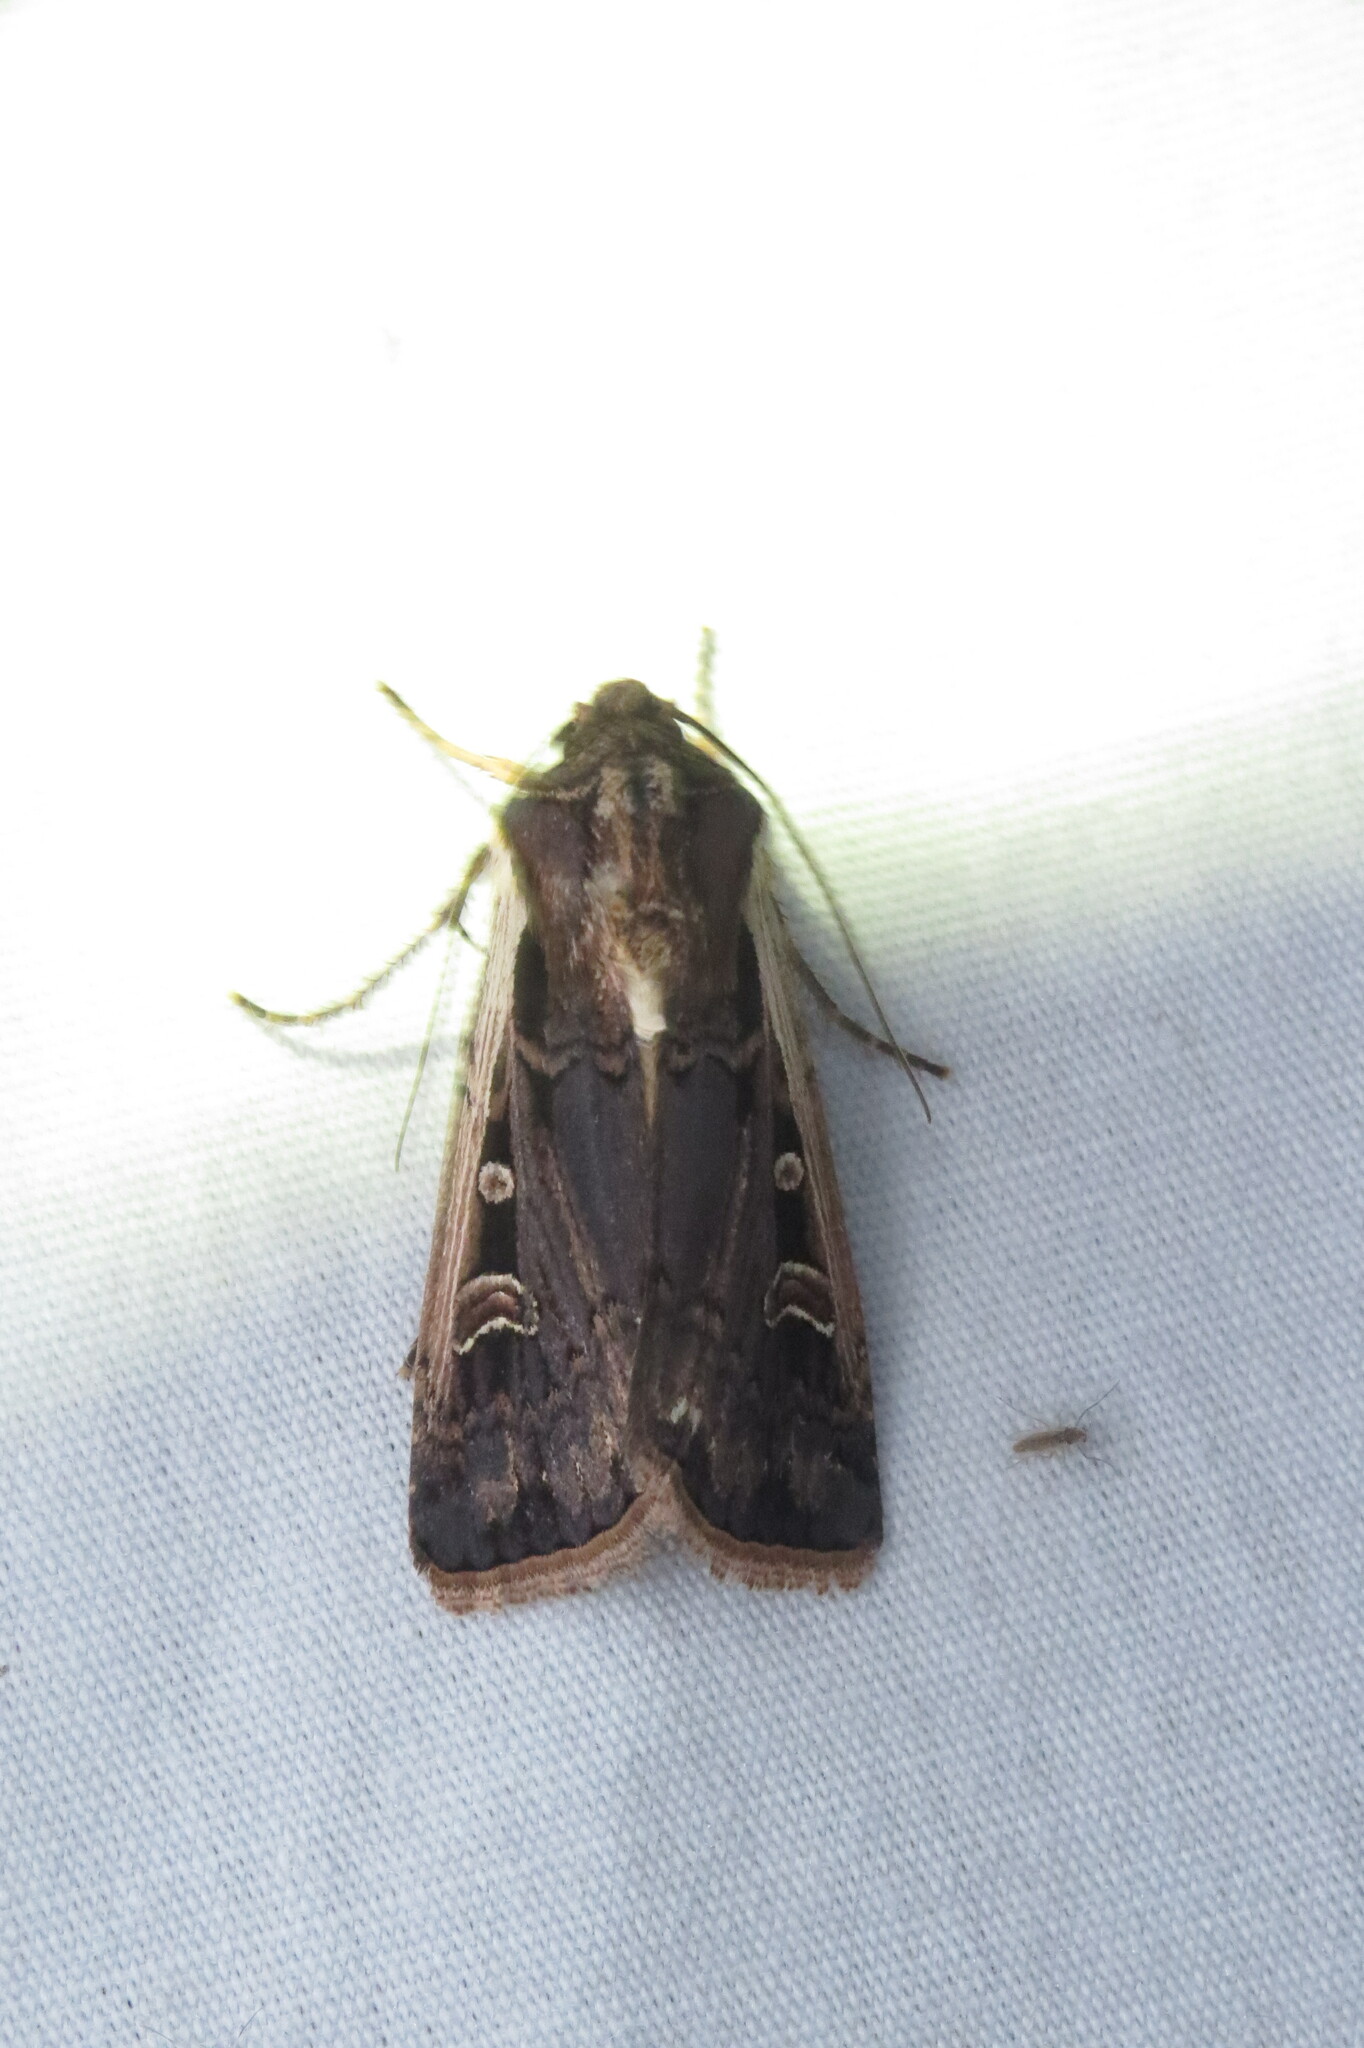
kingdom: Animalia
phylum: Arthropoda
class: Insecta
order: Lepidoptera
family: Noctuidae
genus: Striacosta
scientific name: Striacosta albicosta
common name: Western bean cutworm moth
